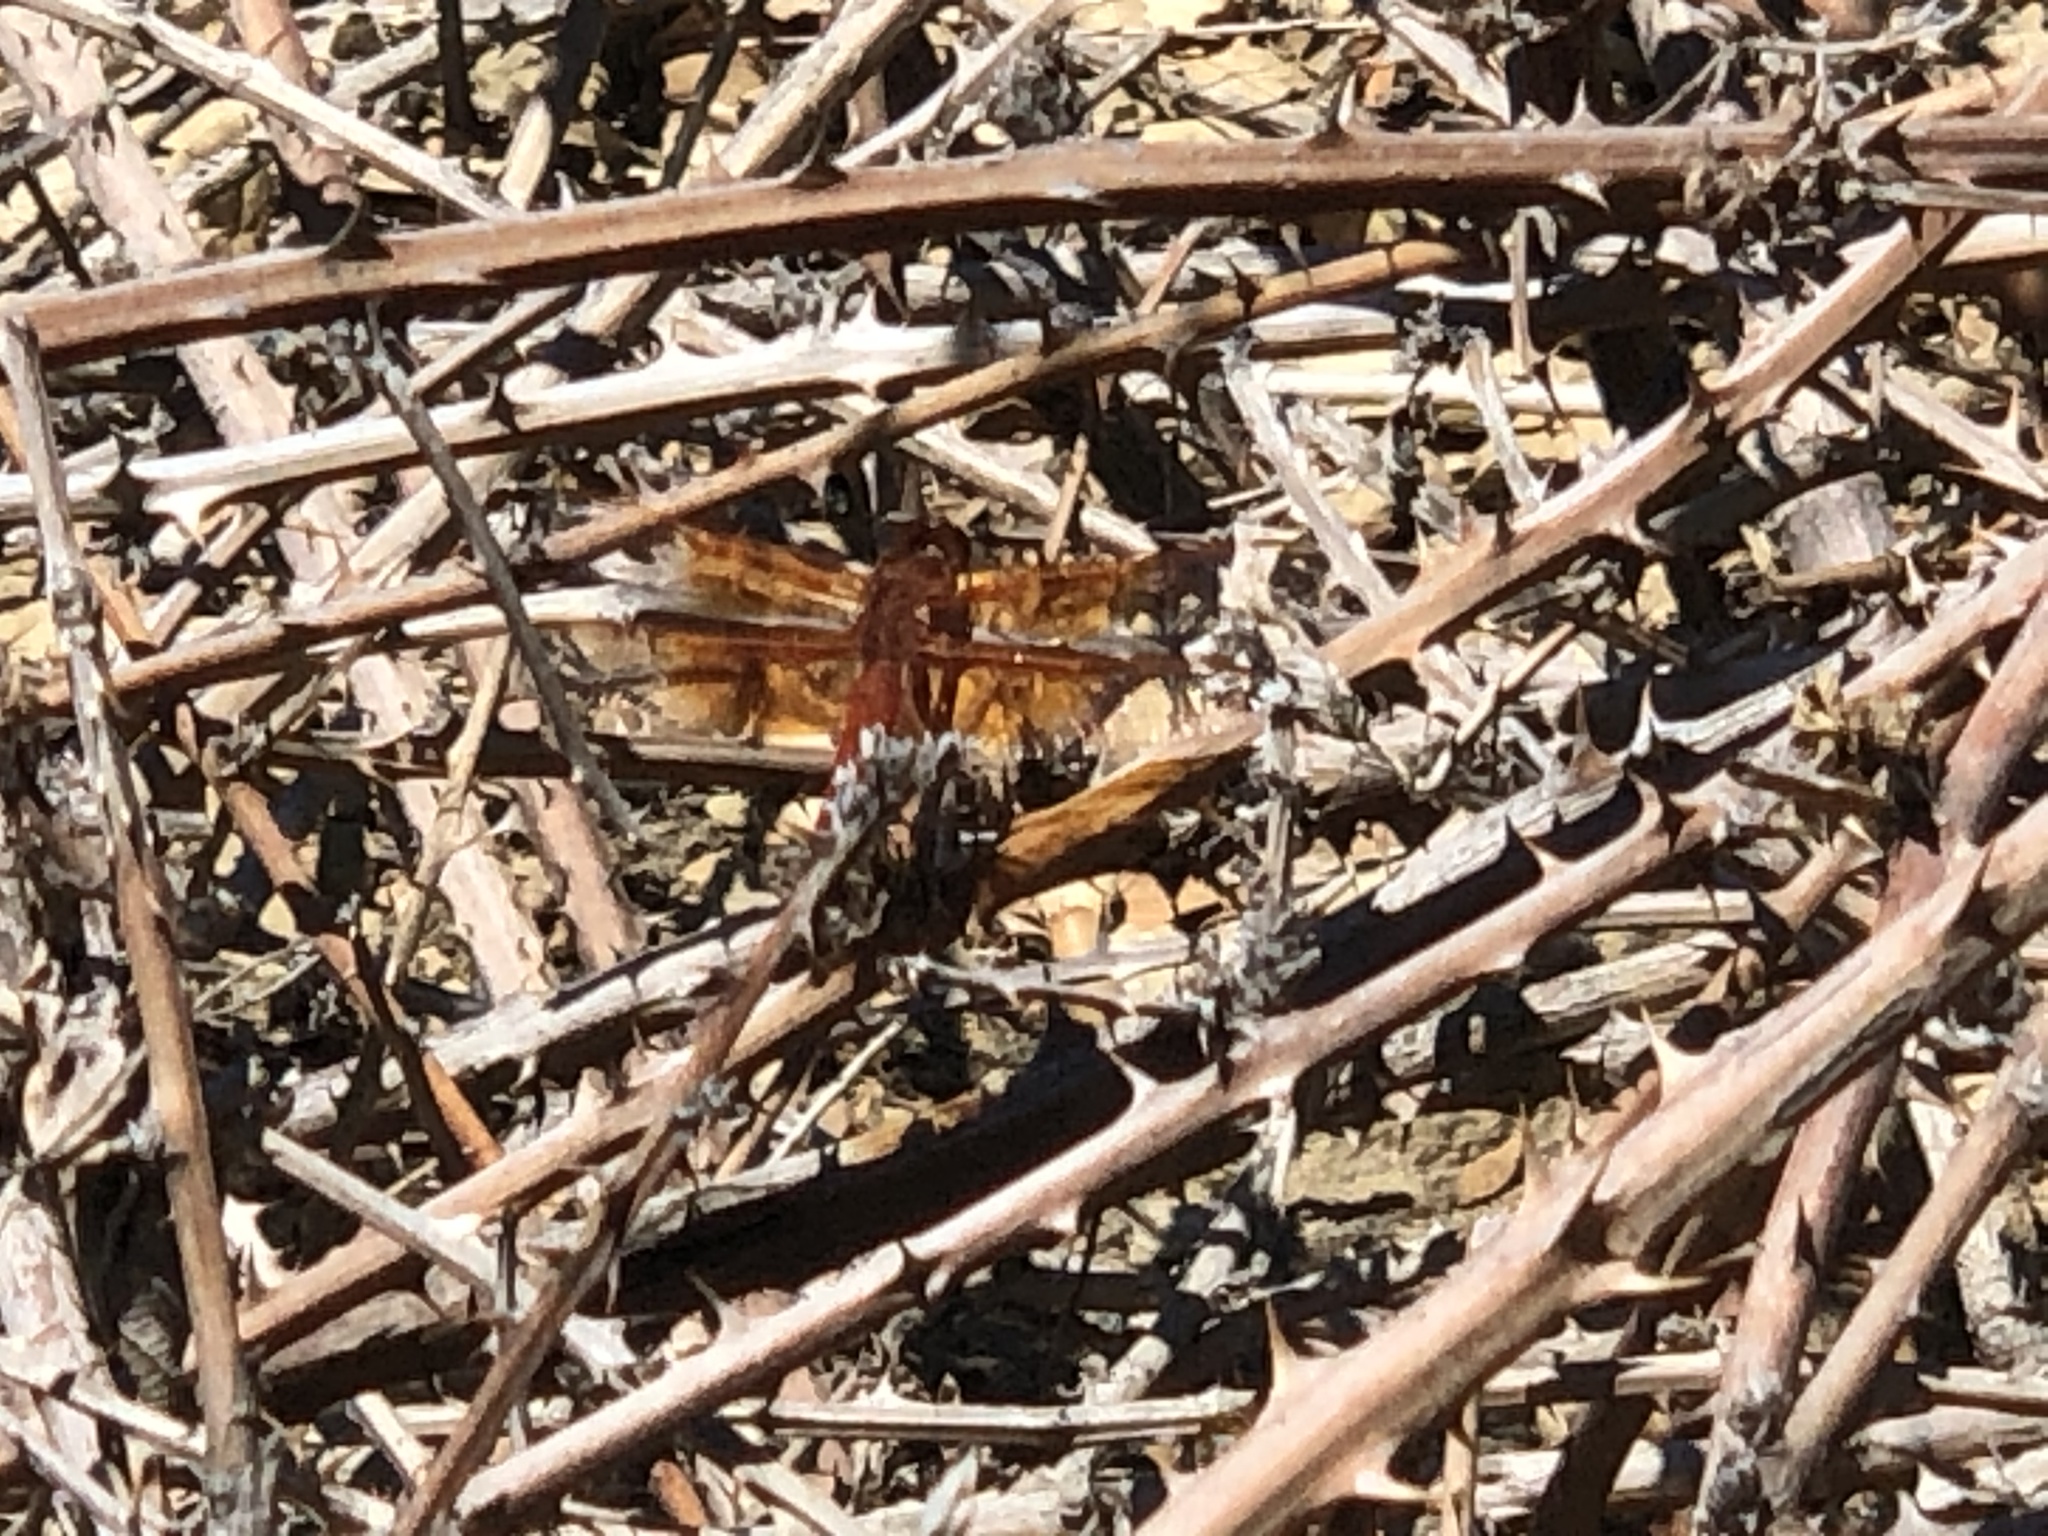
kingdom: Animalia
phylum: Arthropoda
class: Insecta
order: Odonata
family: Libellulidae
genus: Libellula
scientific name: Libellula saturata
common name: Flame skimmer
